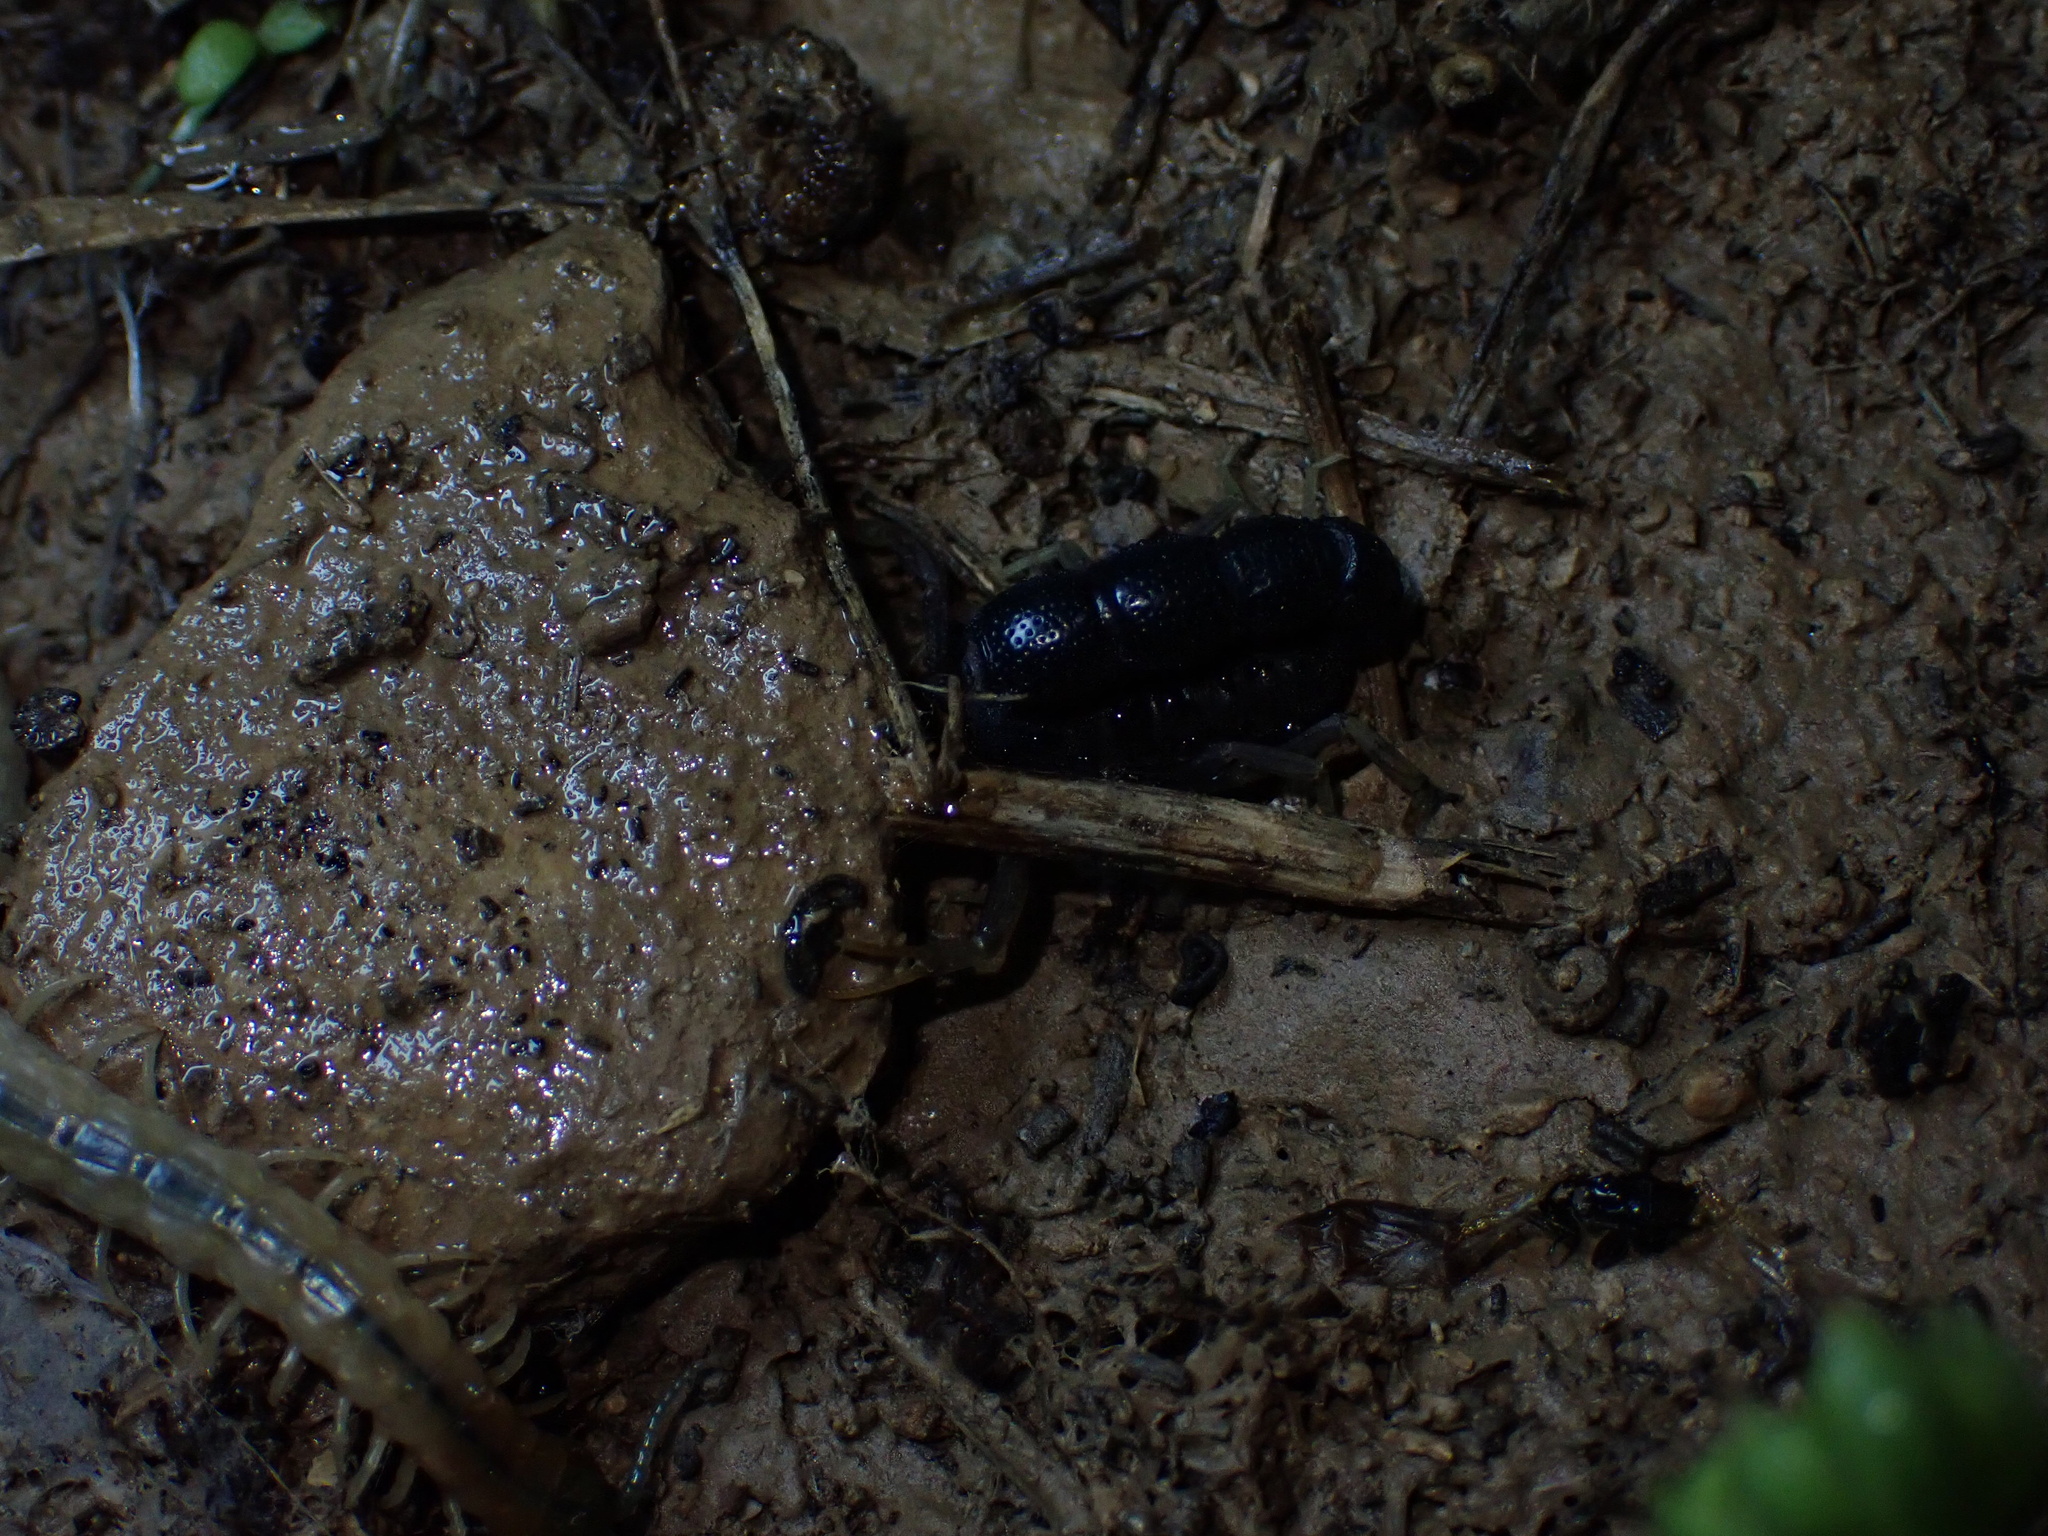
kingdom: Animalia
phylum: Arthropoda
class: Arachnida
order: Scorpiones
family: Buthidae
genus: Orthochirus
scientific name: Orthochirus farzanpayi
